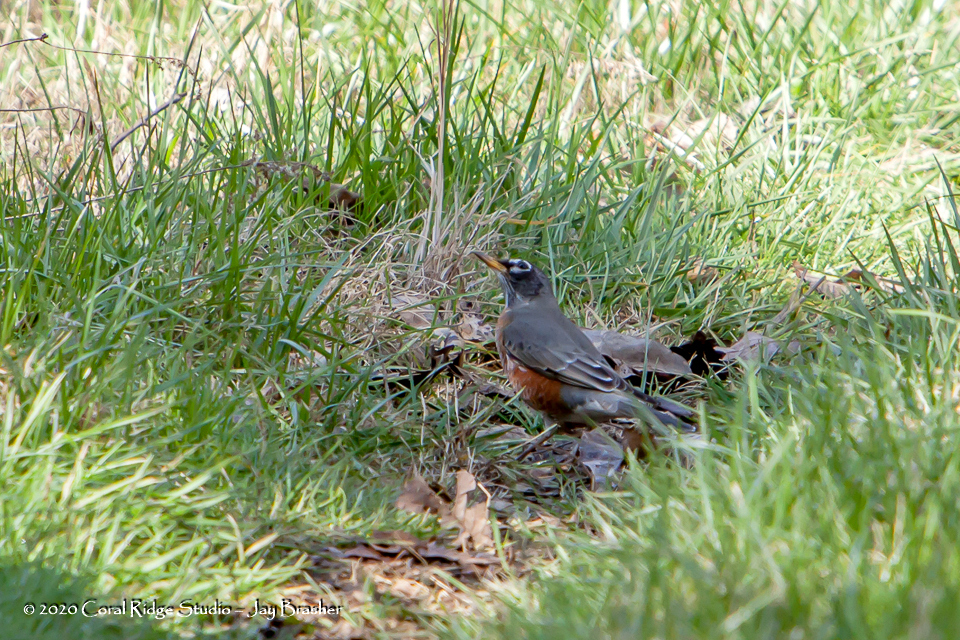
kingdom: Animalia
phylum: Chordata
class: Aves
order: Passeriformes
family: Turdidae
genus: Turdus
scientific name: Turdus migratorius
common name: American robin
